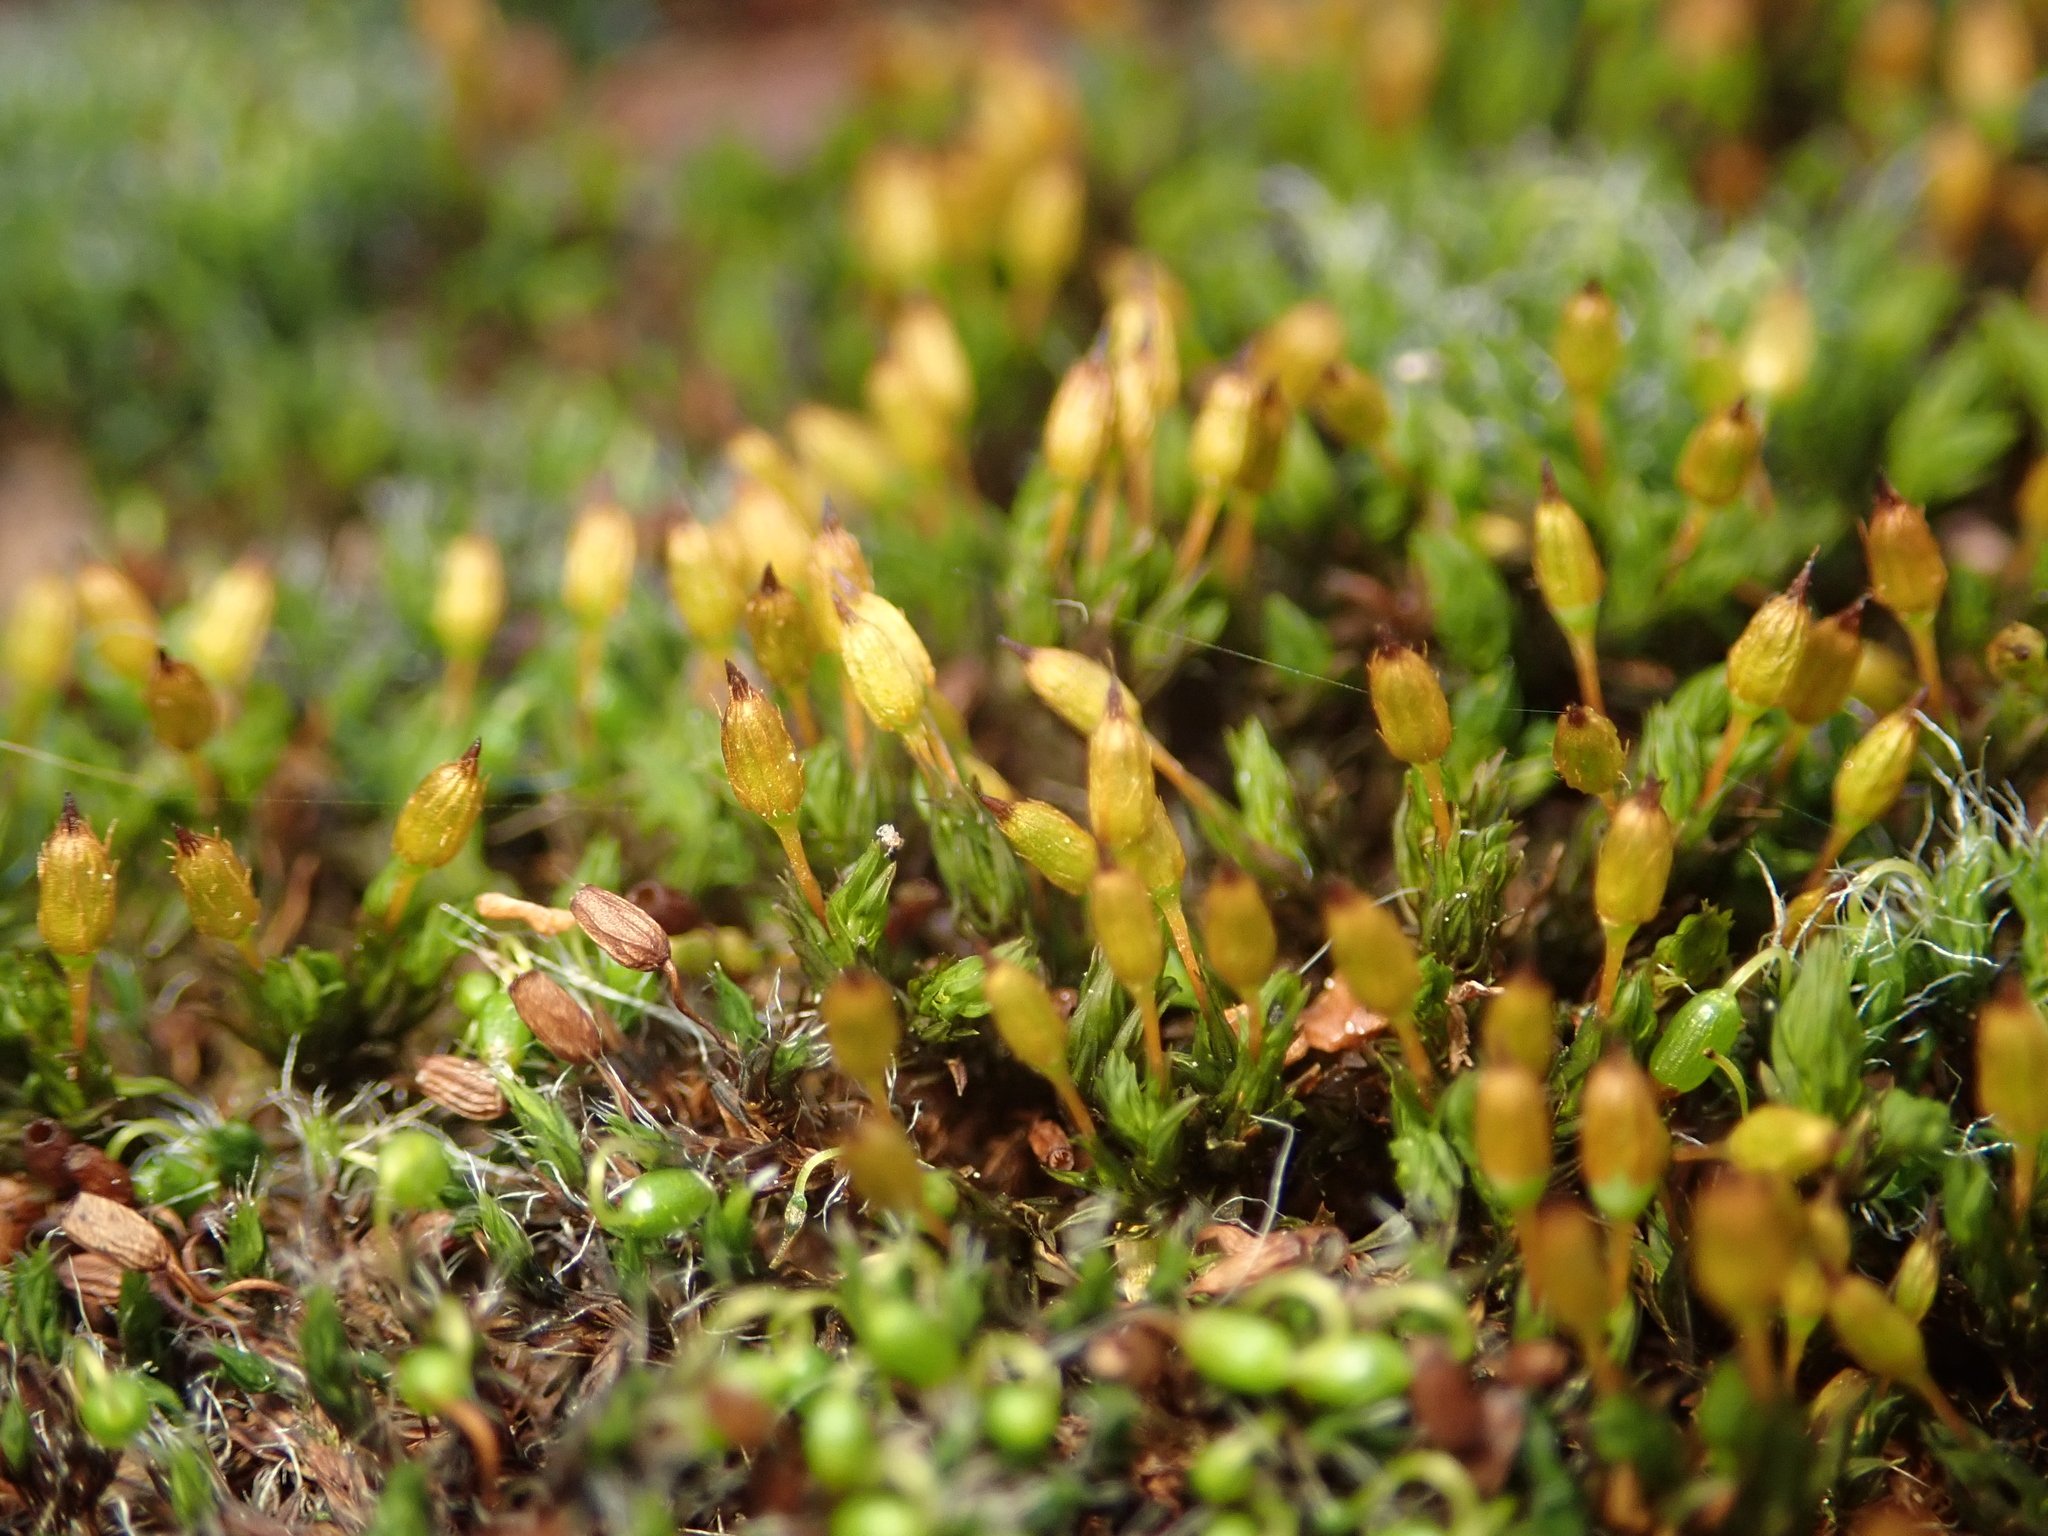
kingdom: Plantae
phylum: Bryophyta
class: Bryopsida
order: Orthotrichales
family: Orthotrichaceae
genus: Orthotrichum
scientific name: Orthotrichum anomalum
